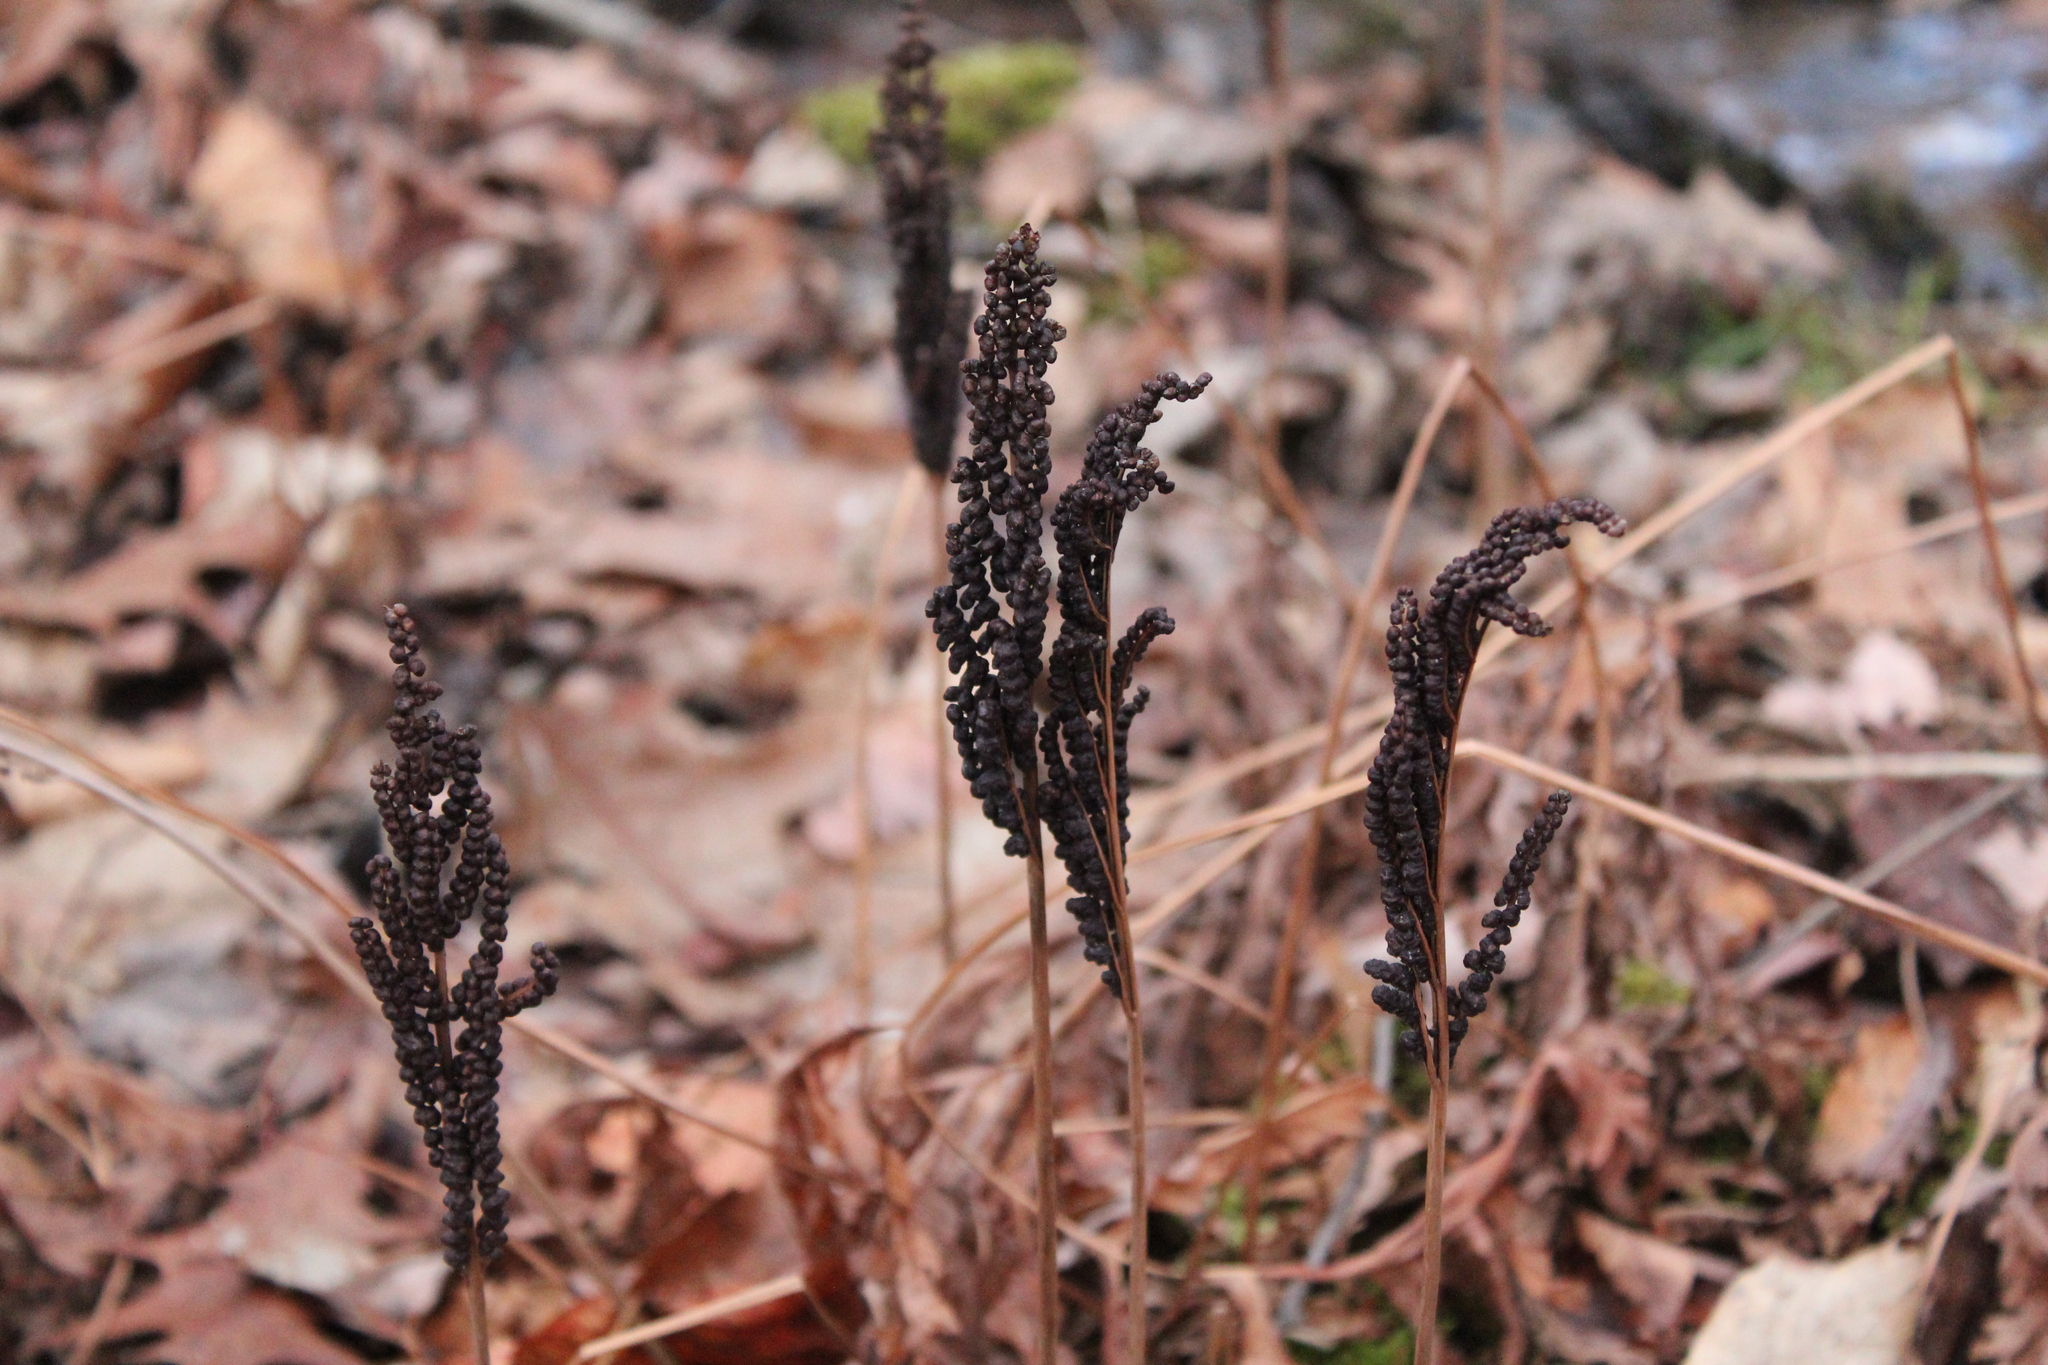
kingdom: Plantae
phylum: Tracheophyta
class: Polypodiopsida
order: Polypodiales
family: Onocleaceae
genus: Onoclea
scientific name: Onoclea sensibilis
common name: Sensitive fern
